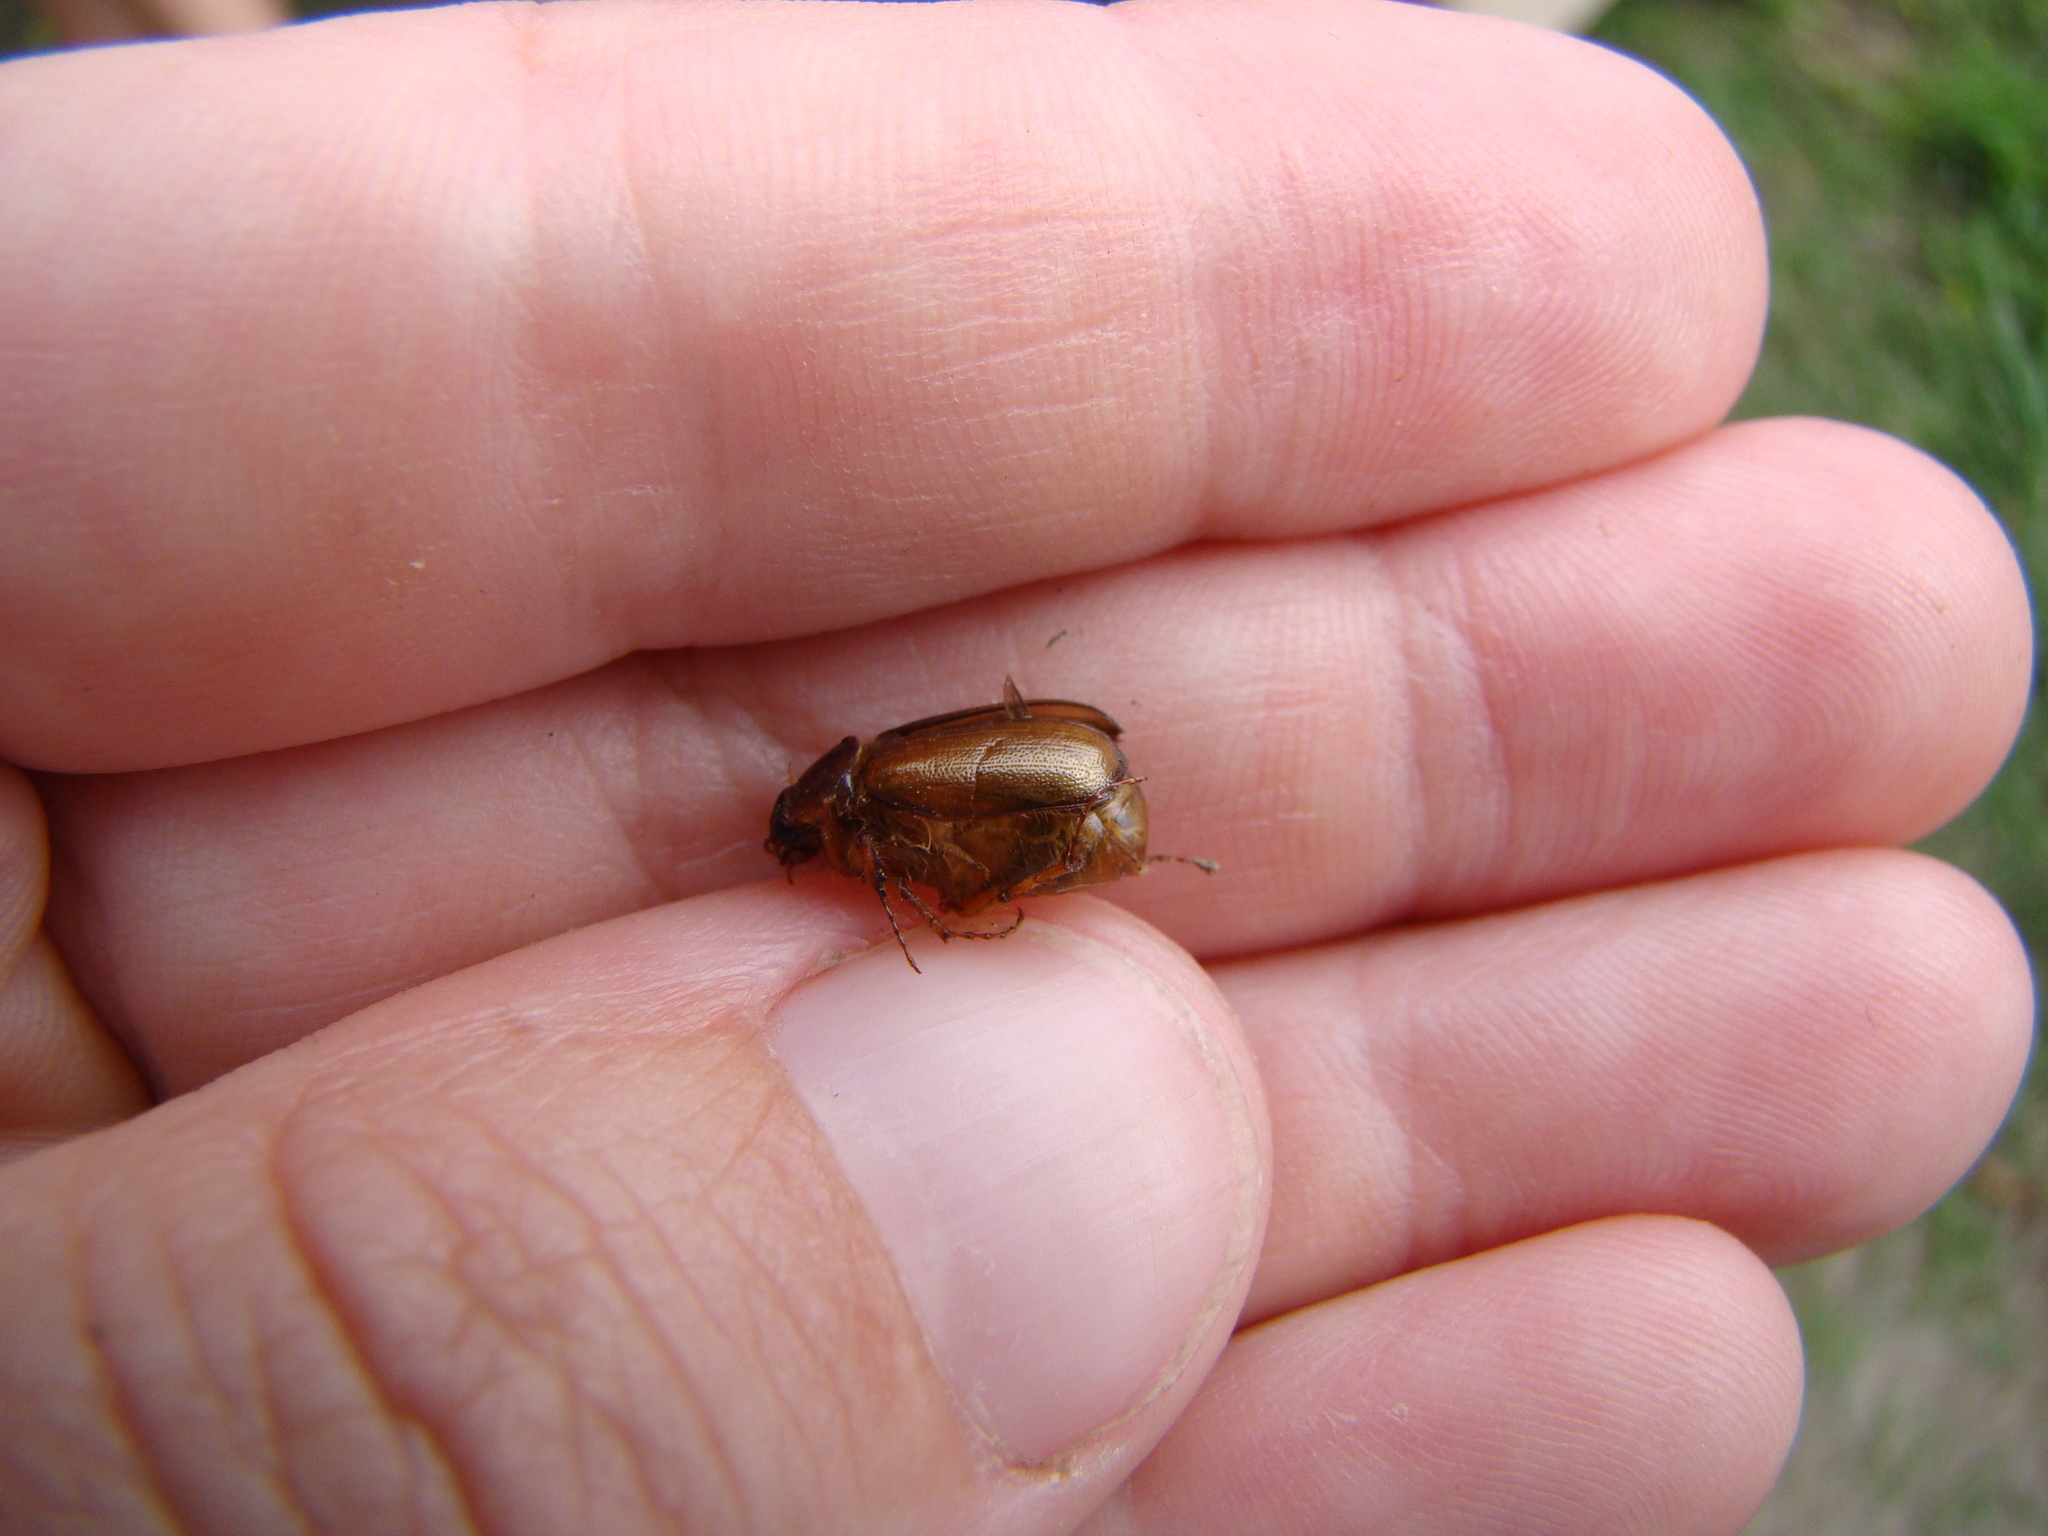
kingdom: Animalia
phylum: Arthropoda
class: Insecta
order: Coleoptera
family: Scarabaeidae
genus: Costelytra
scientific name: Costelytra zealandica
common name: New zealand grass grub
